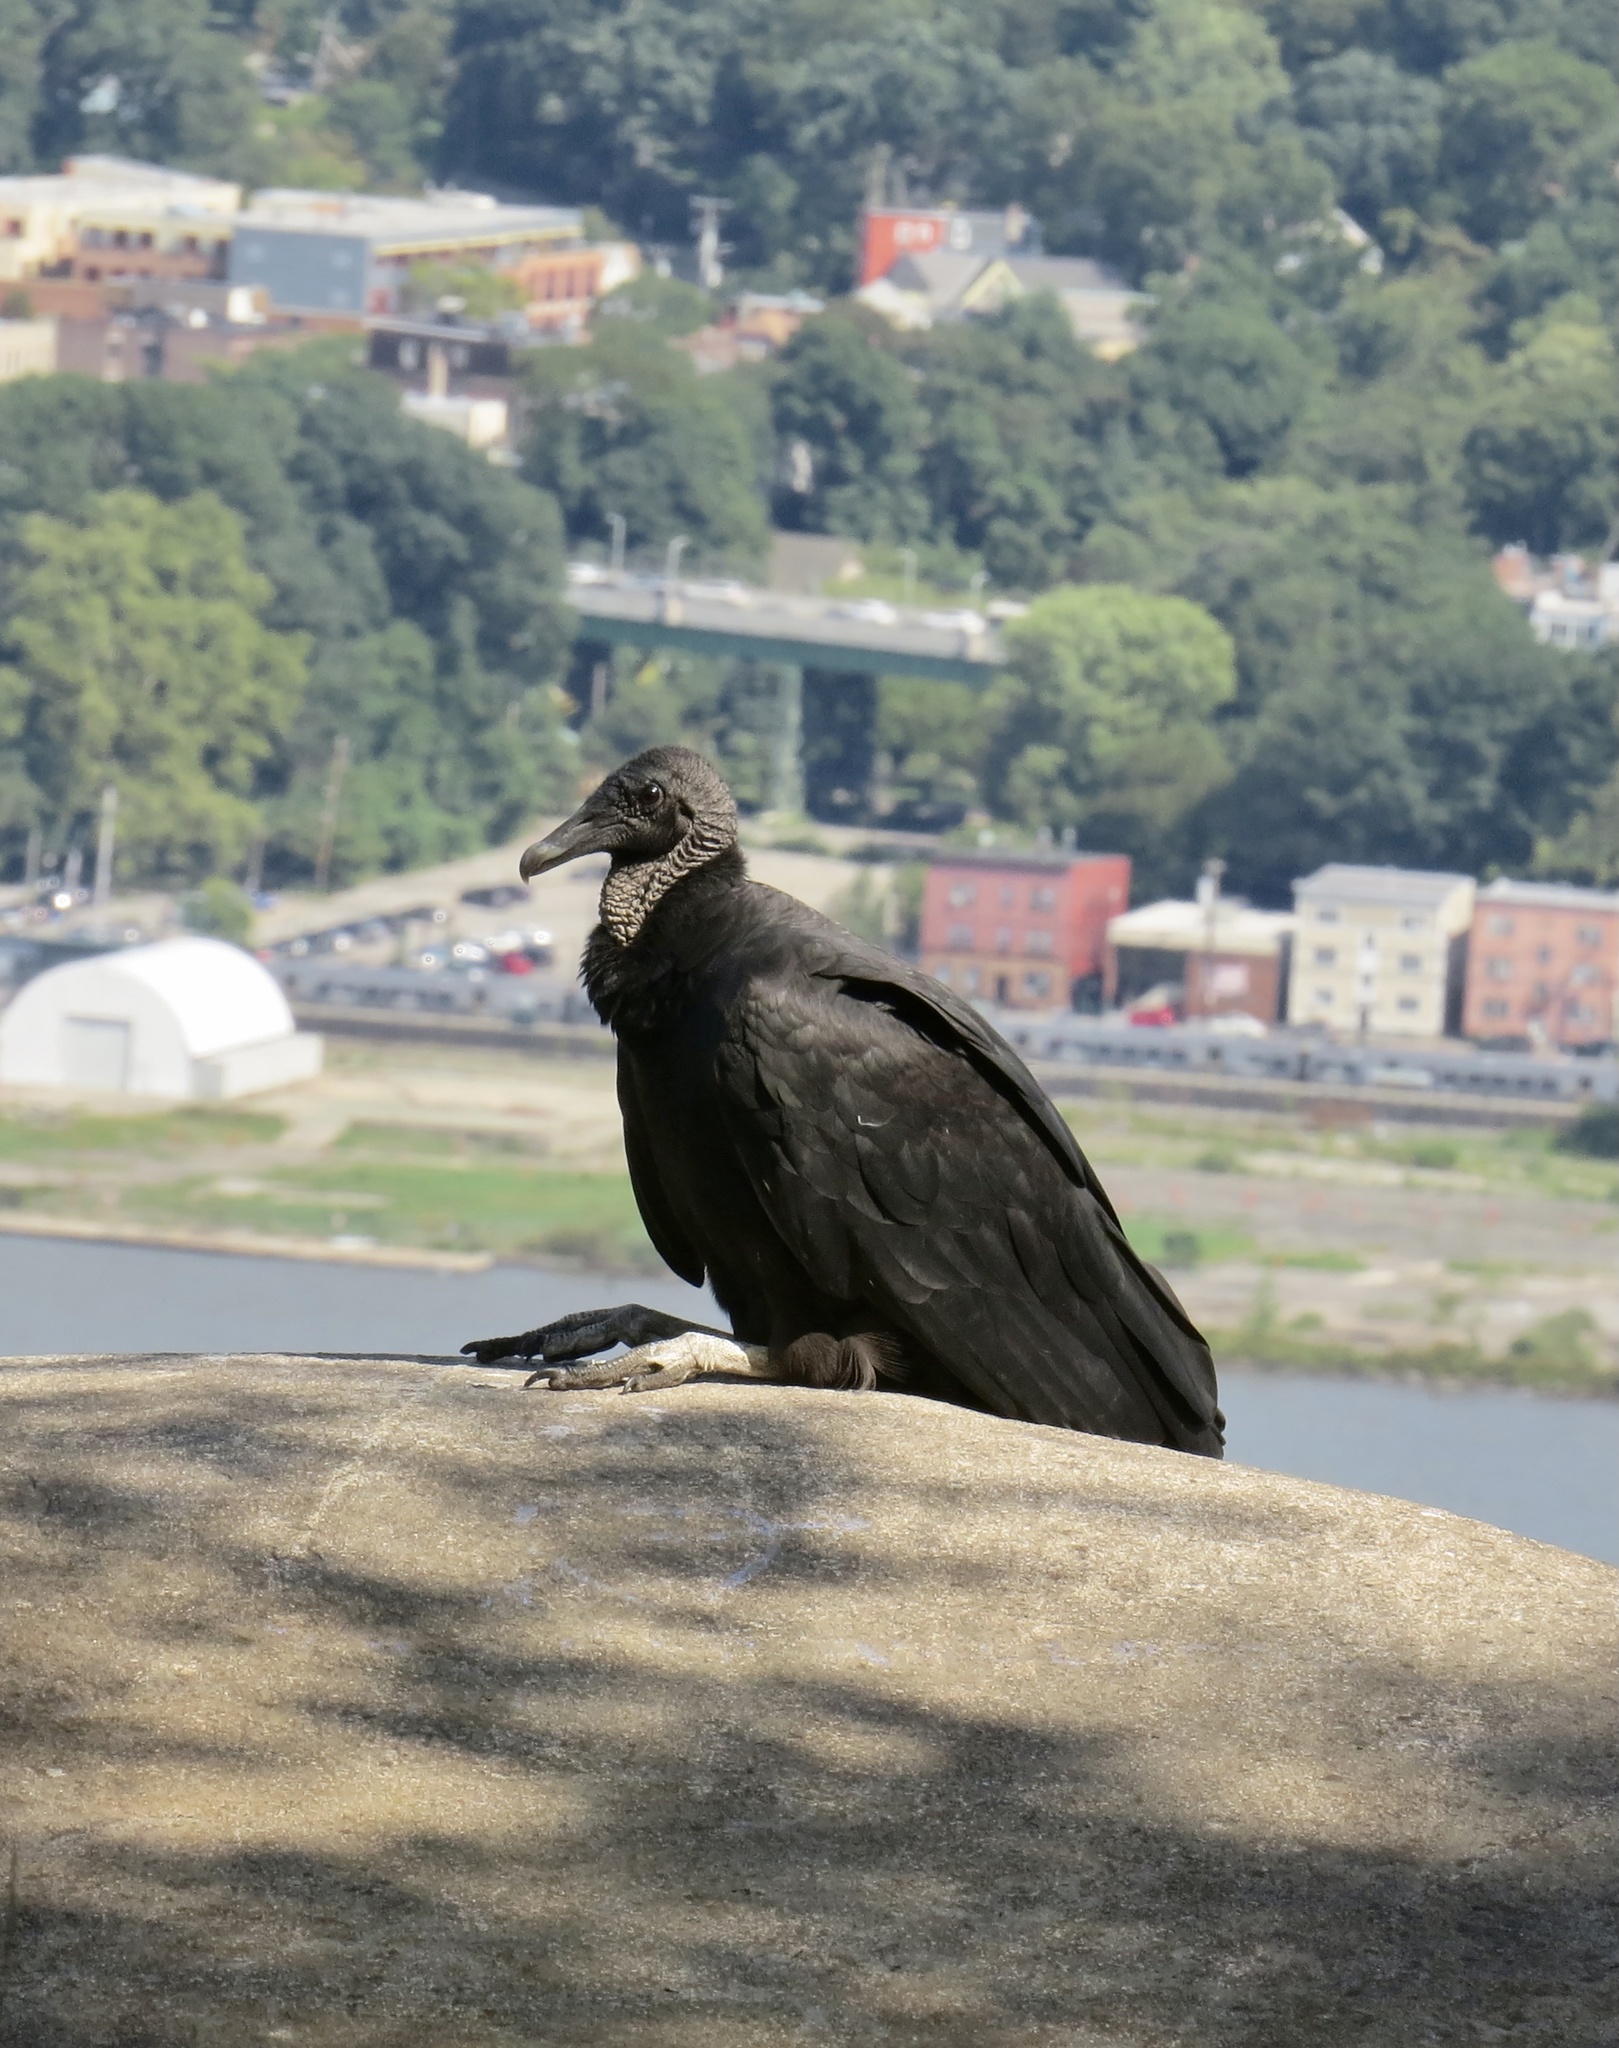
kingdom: Animalia
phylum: Chordata
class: Aves
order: Accipitriformes
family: Cathartidae
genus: Coragyps
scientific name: Coragyps atratus
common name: Black vulture
